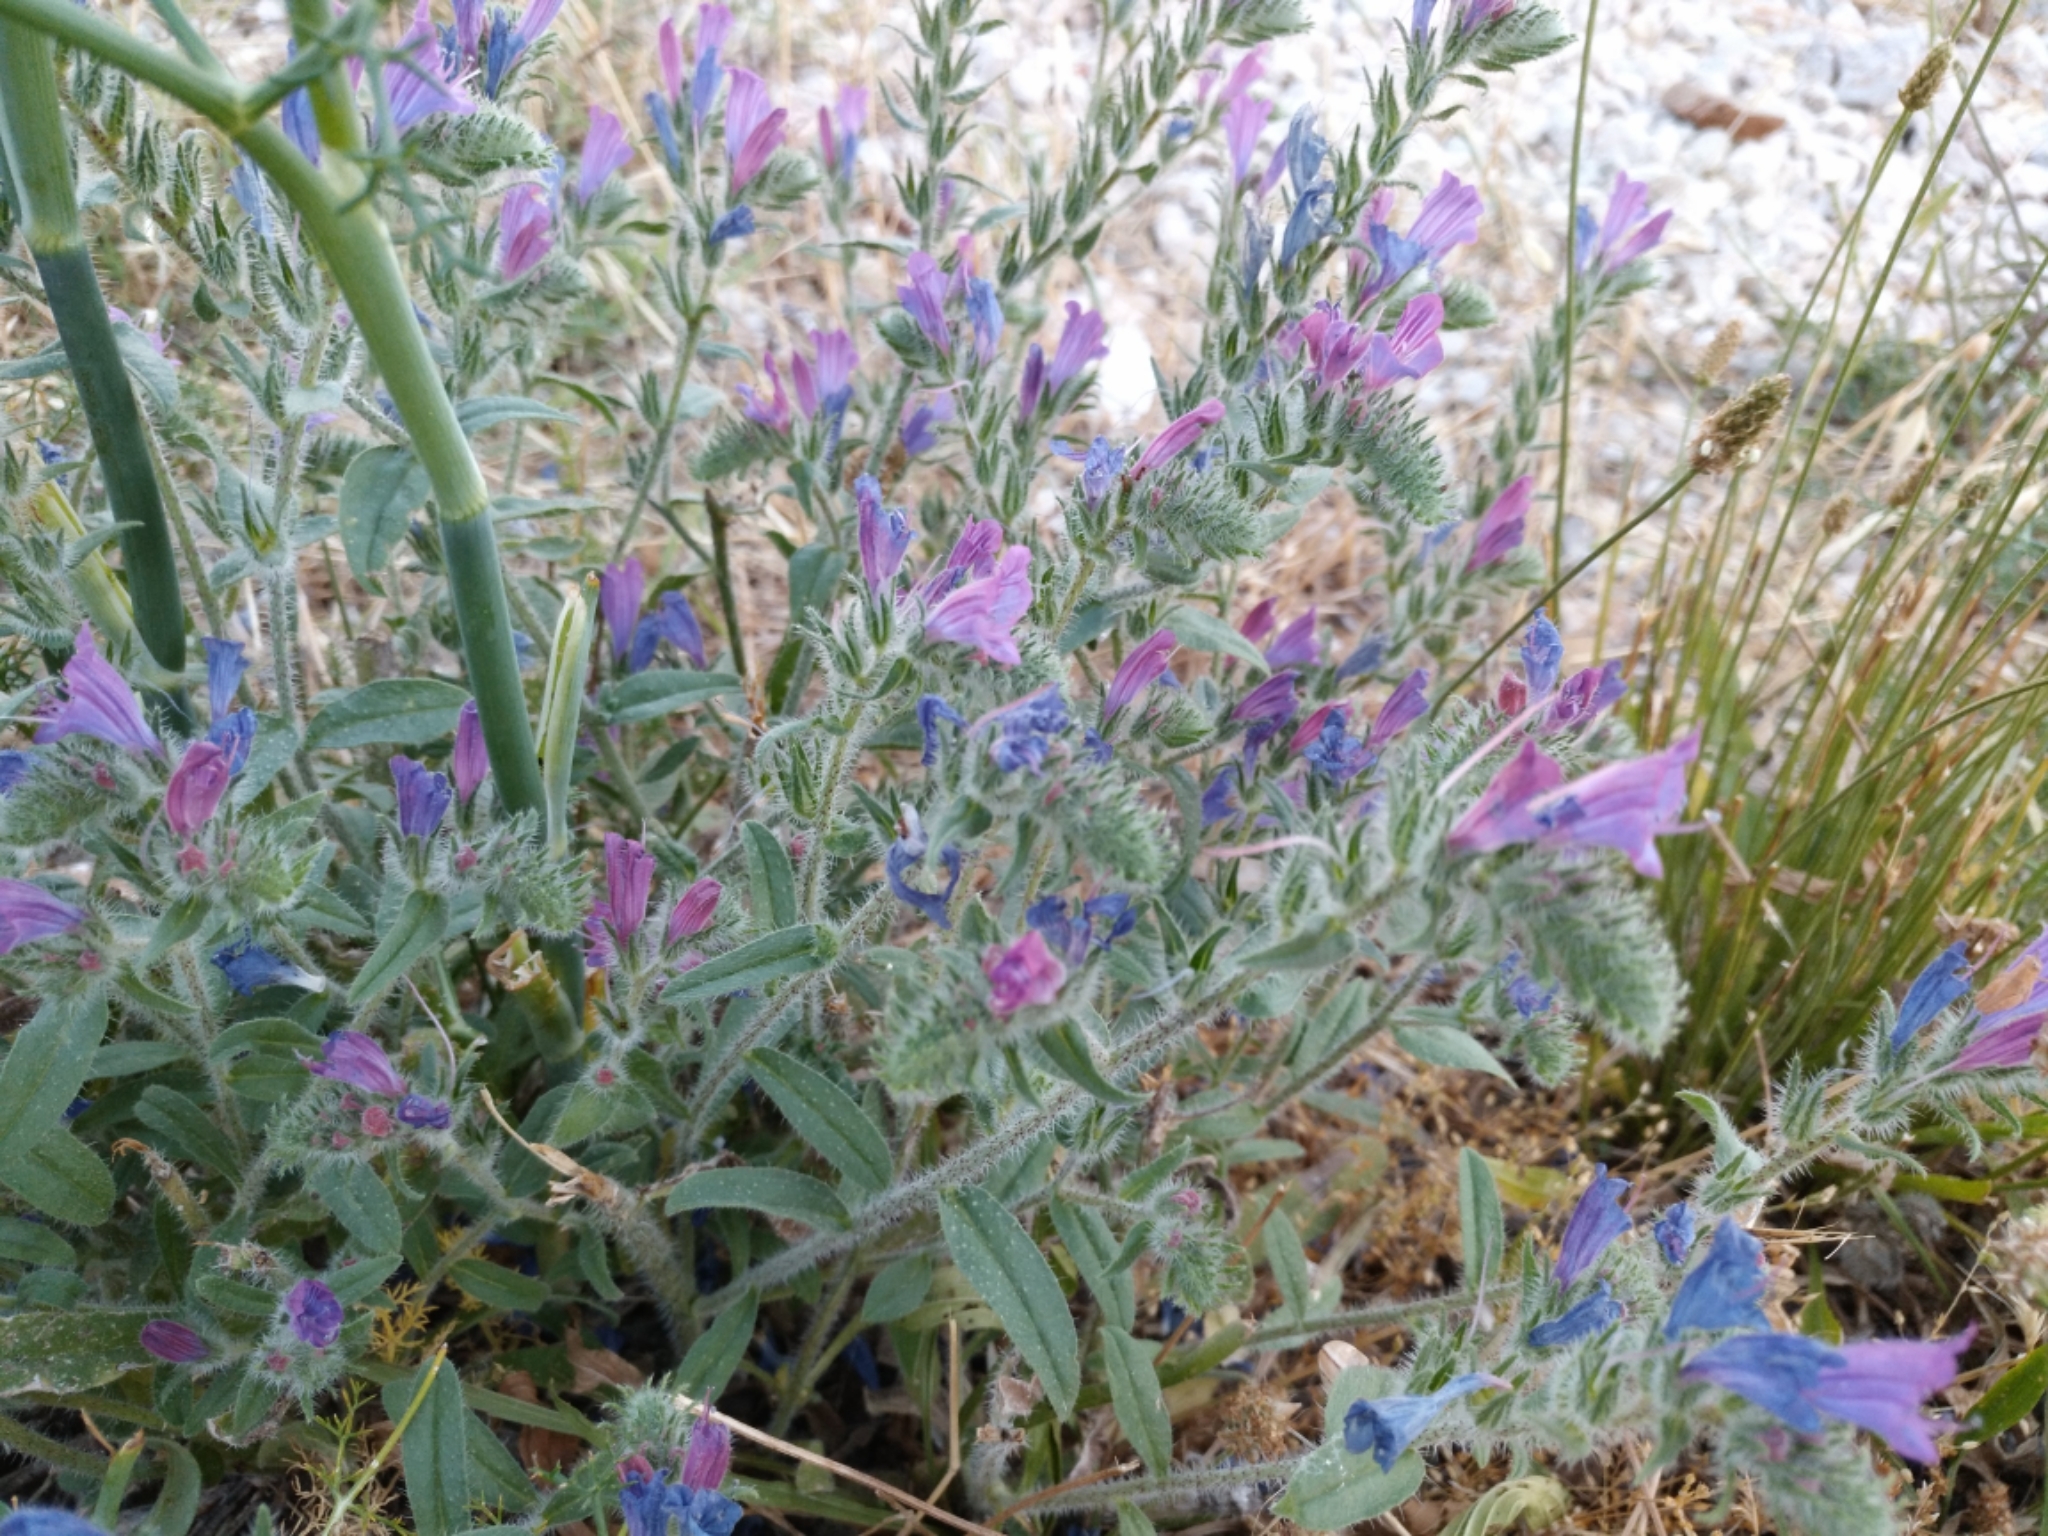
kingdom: Plantae
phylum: Tracheophyta
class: Magnoliopsida
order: Boraginales
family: Boraginaceae
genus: Echium
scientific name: Echium vulgare
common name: Common viper's bugloss
